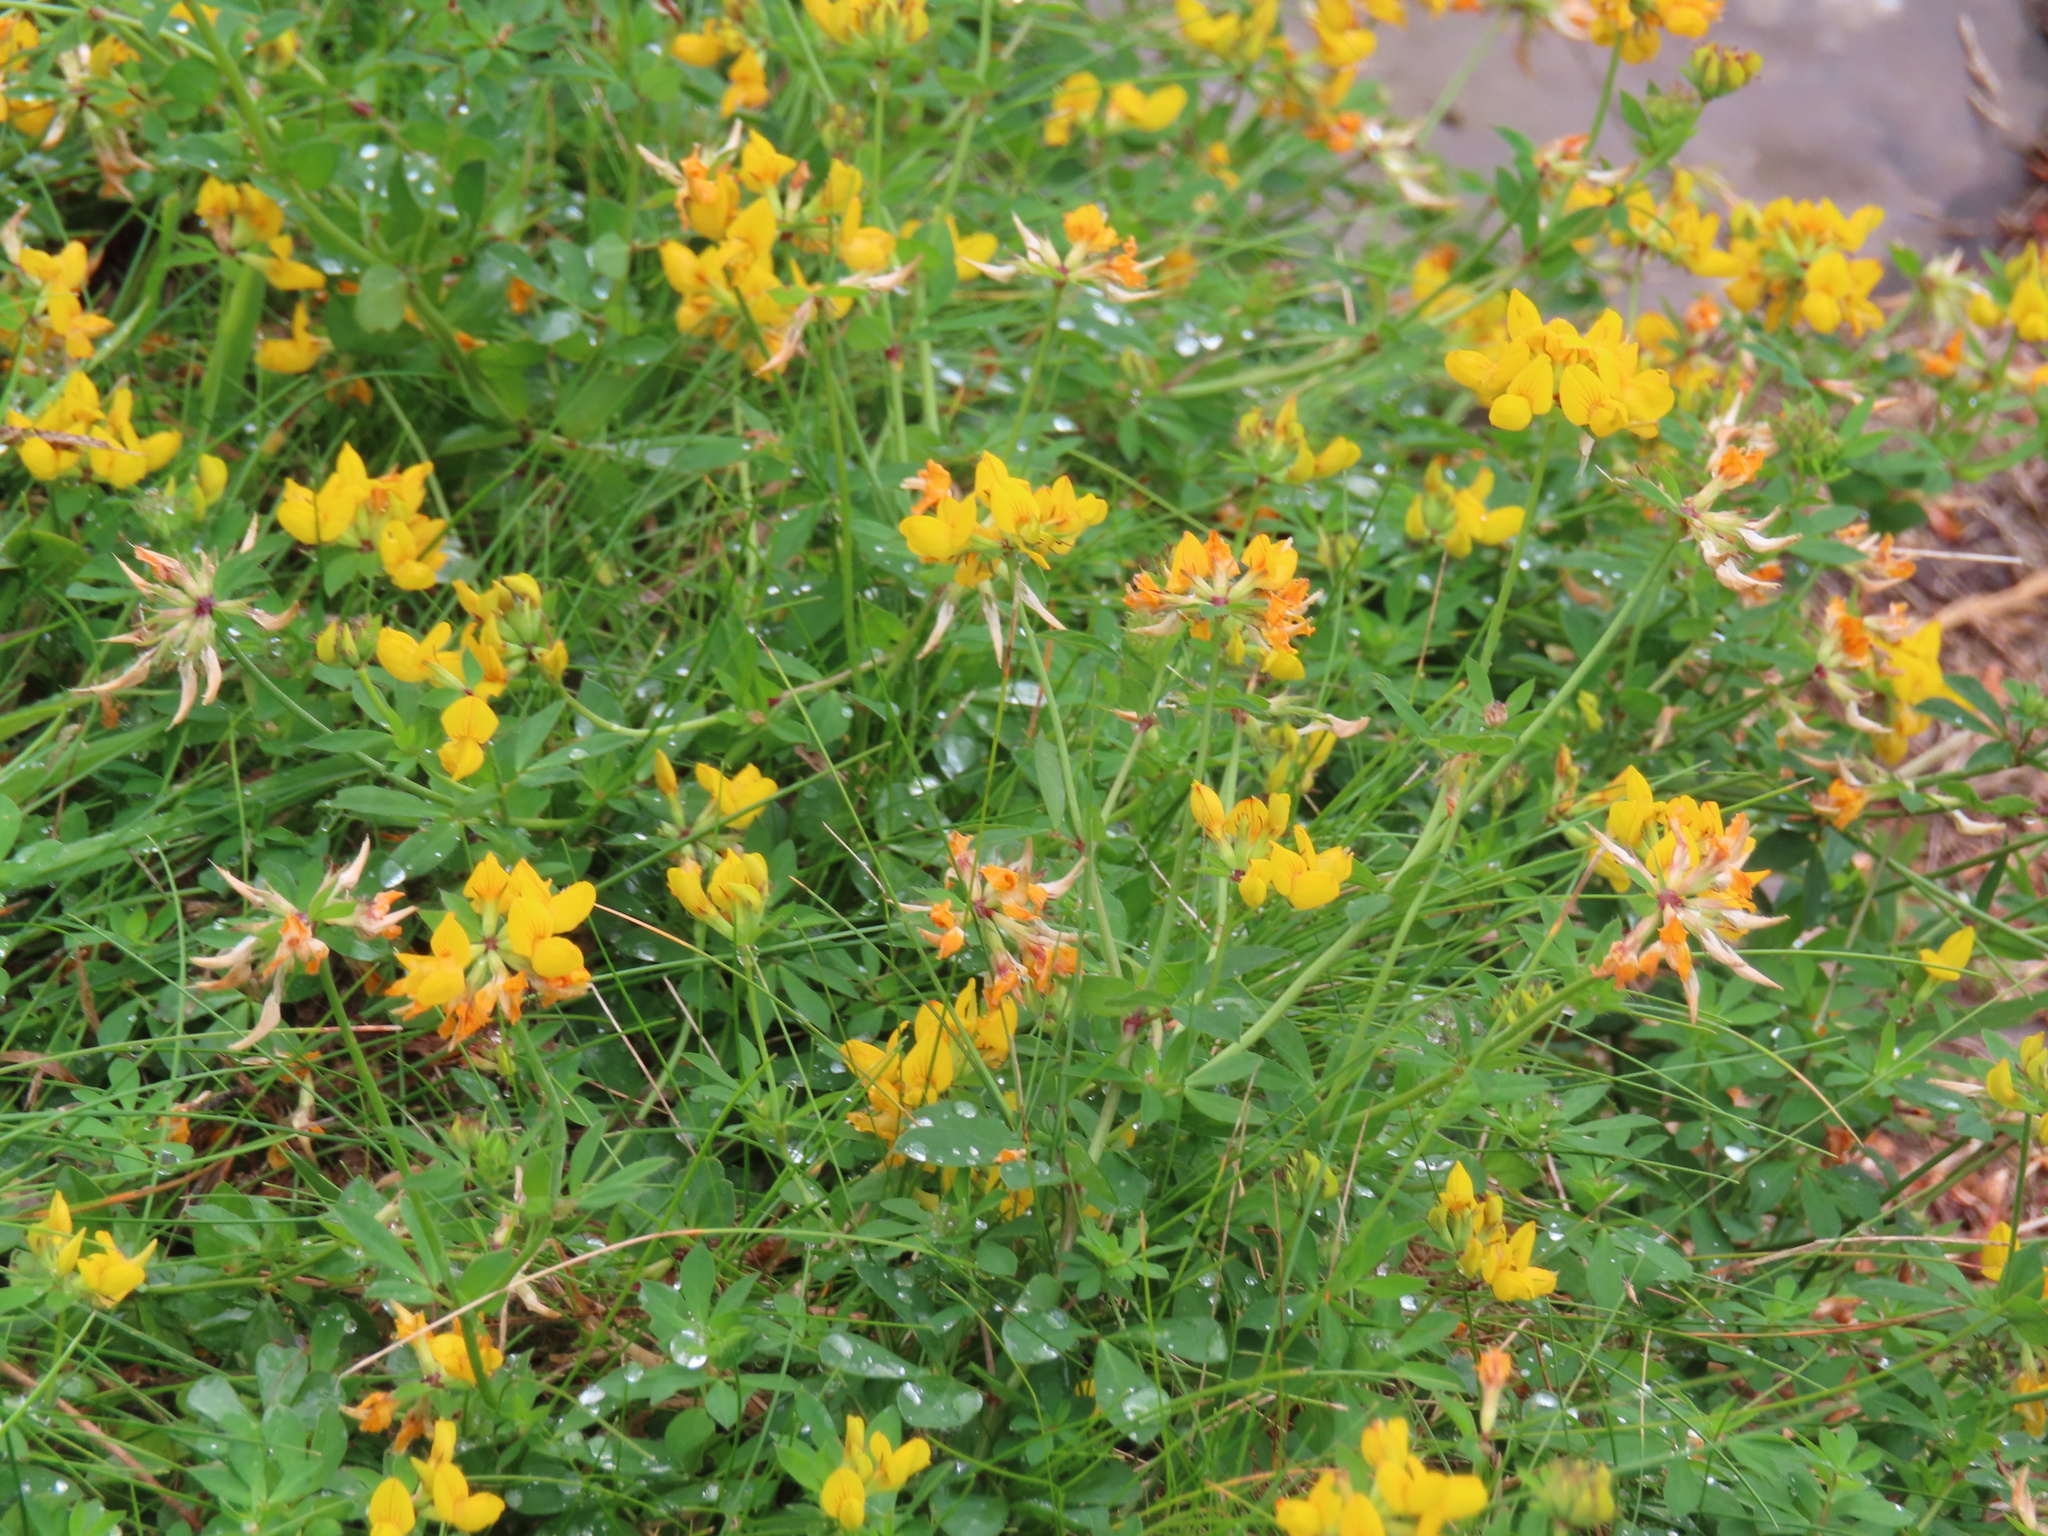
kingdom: Plantae
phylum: Tracheophyta
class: Magnoliopsida
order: Fabales
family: Fabaceae
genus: Lotus
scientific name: Lotus corniculatus
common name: Common bird's-foot-trefoil
